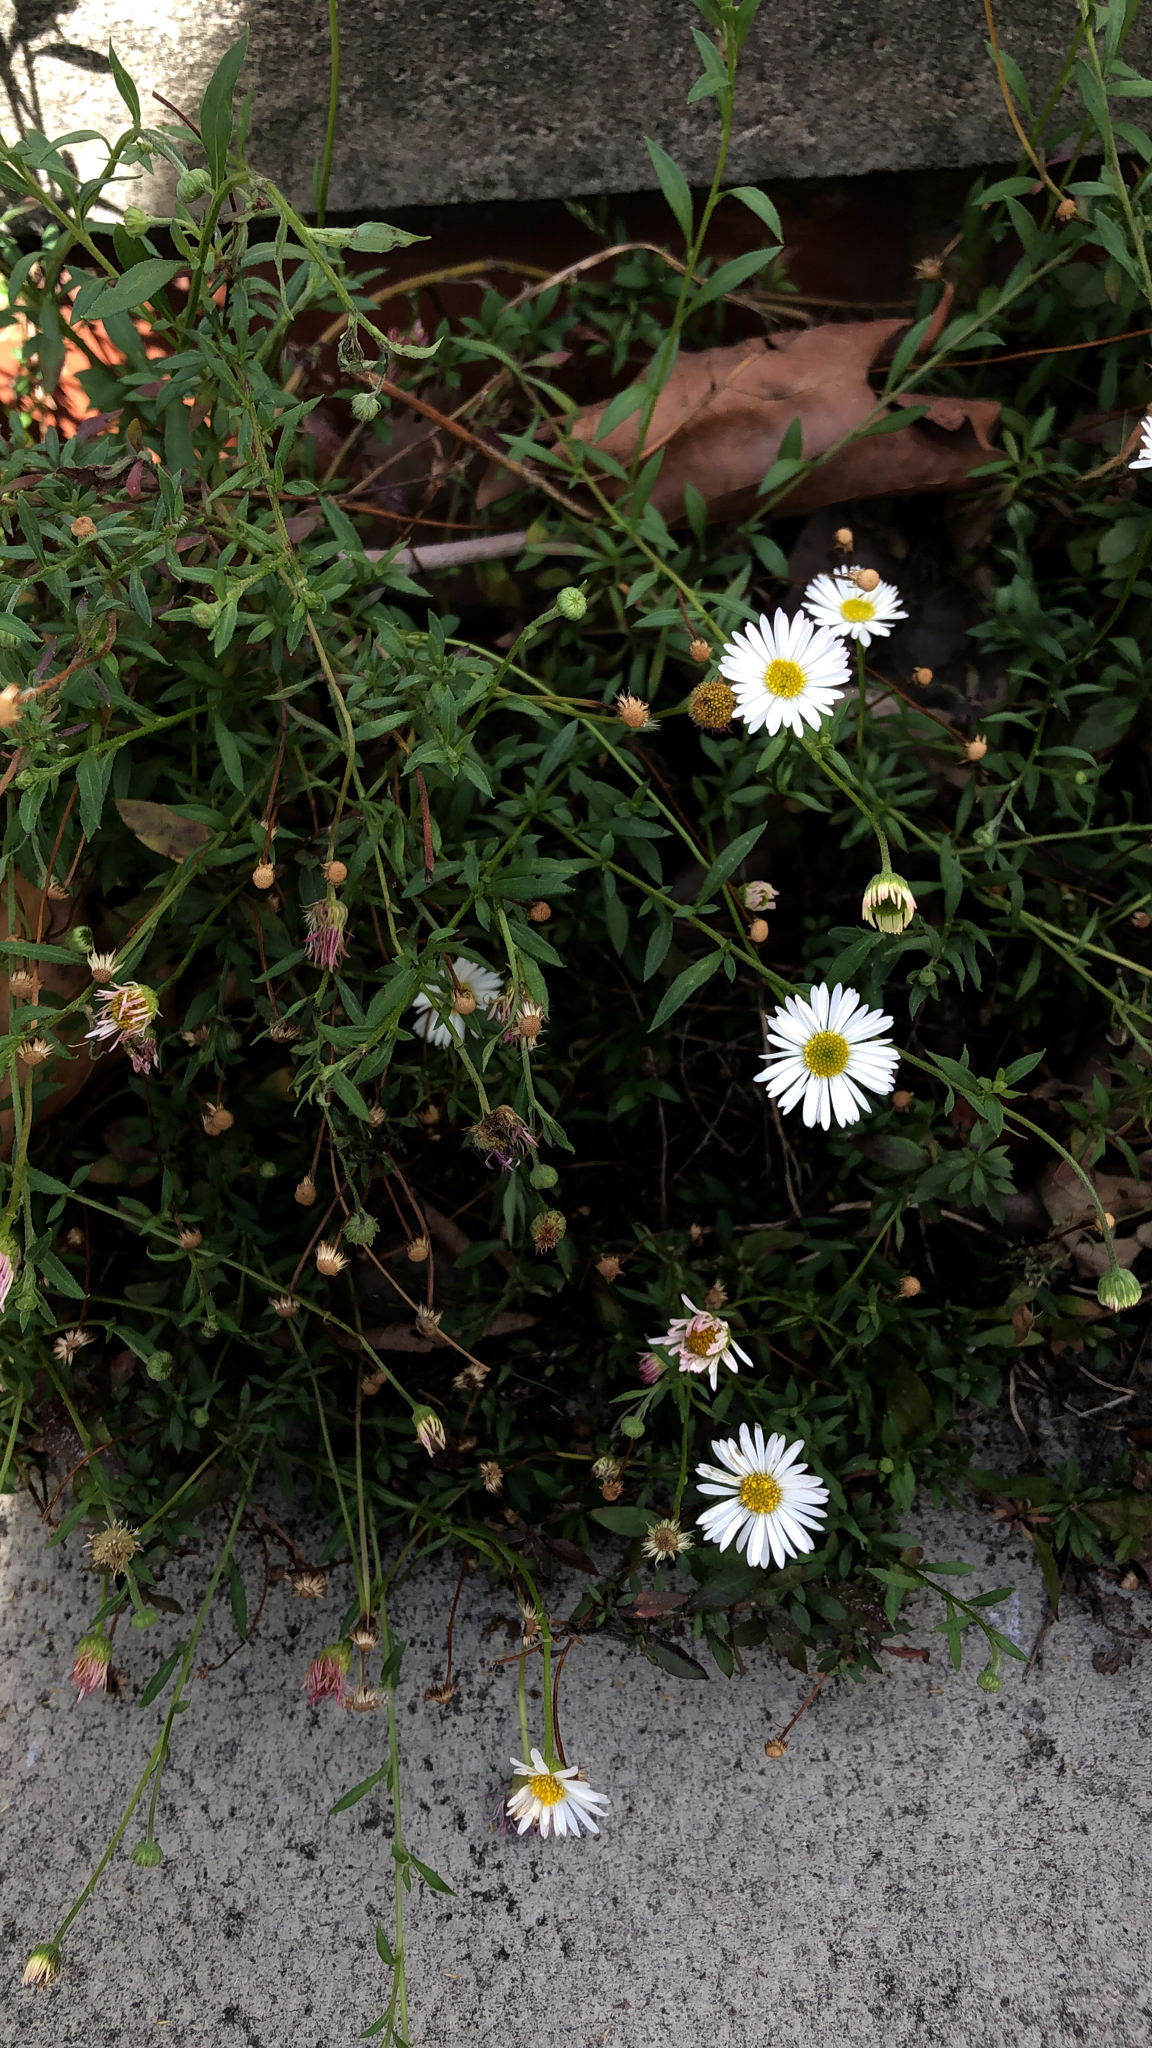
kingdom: Plantae
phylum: Tracheophyta
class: Magnoliopsida
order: Asterales
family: Asteraceae
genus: Erigeron
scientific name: Erigeron karvinskianus
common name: Mexican fleabane
